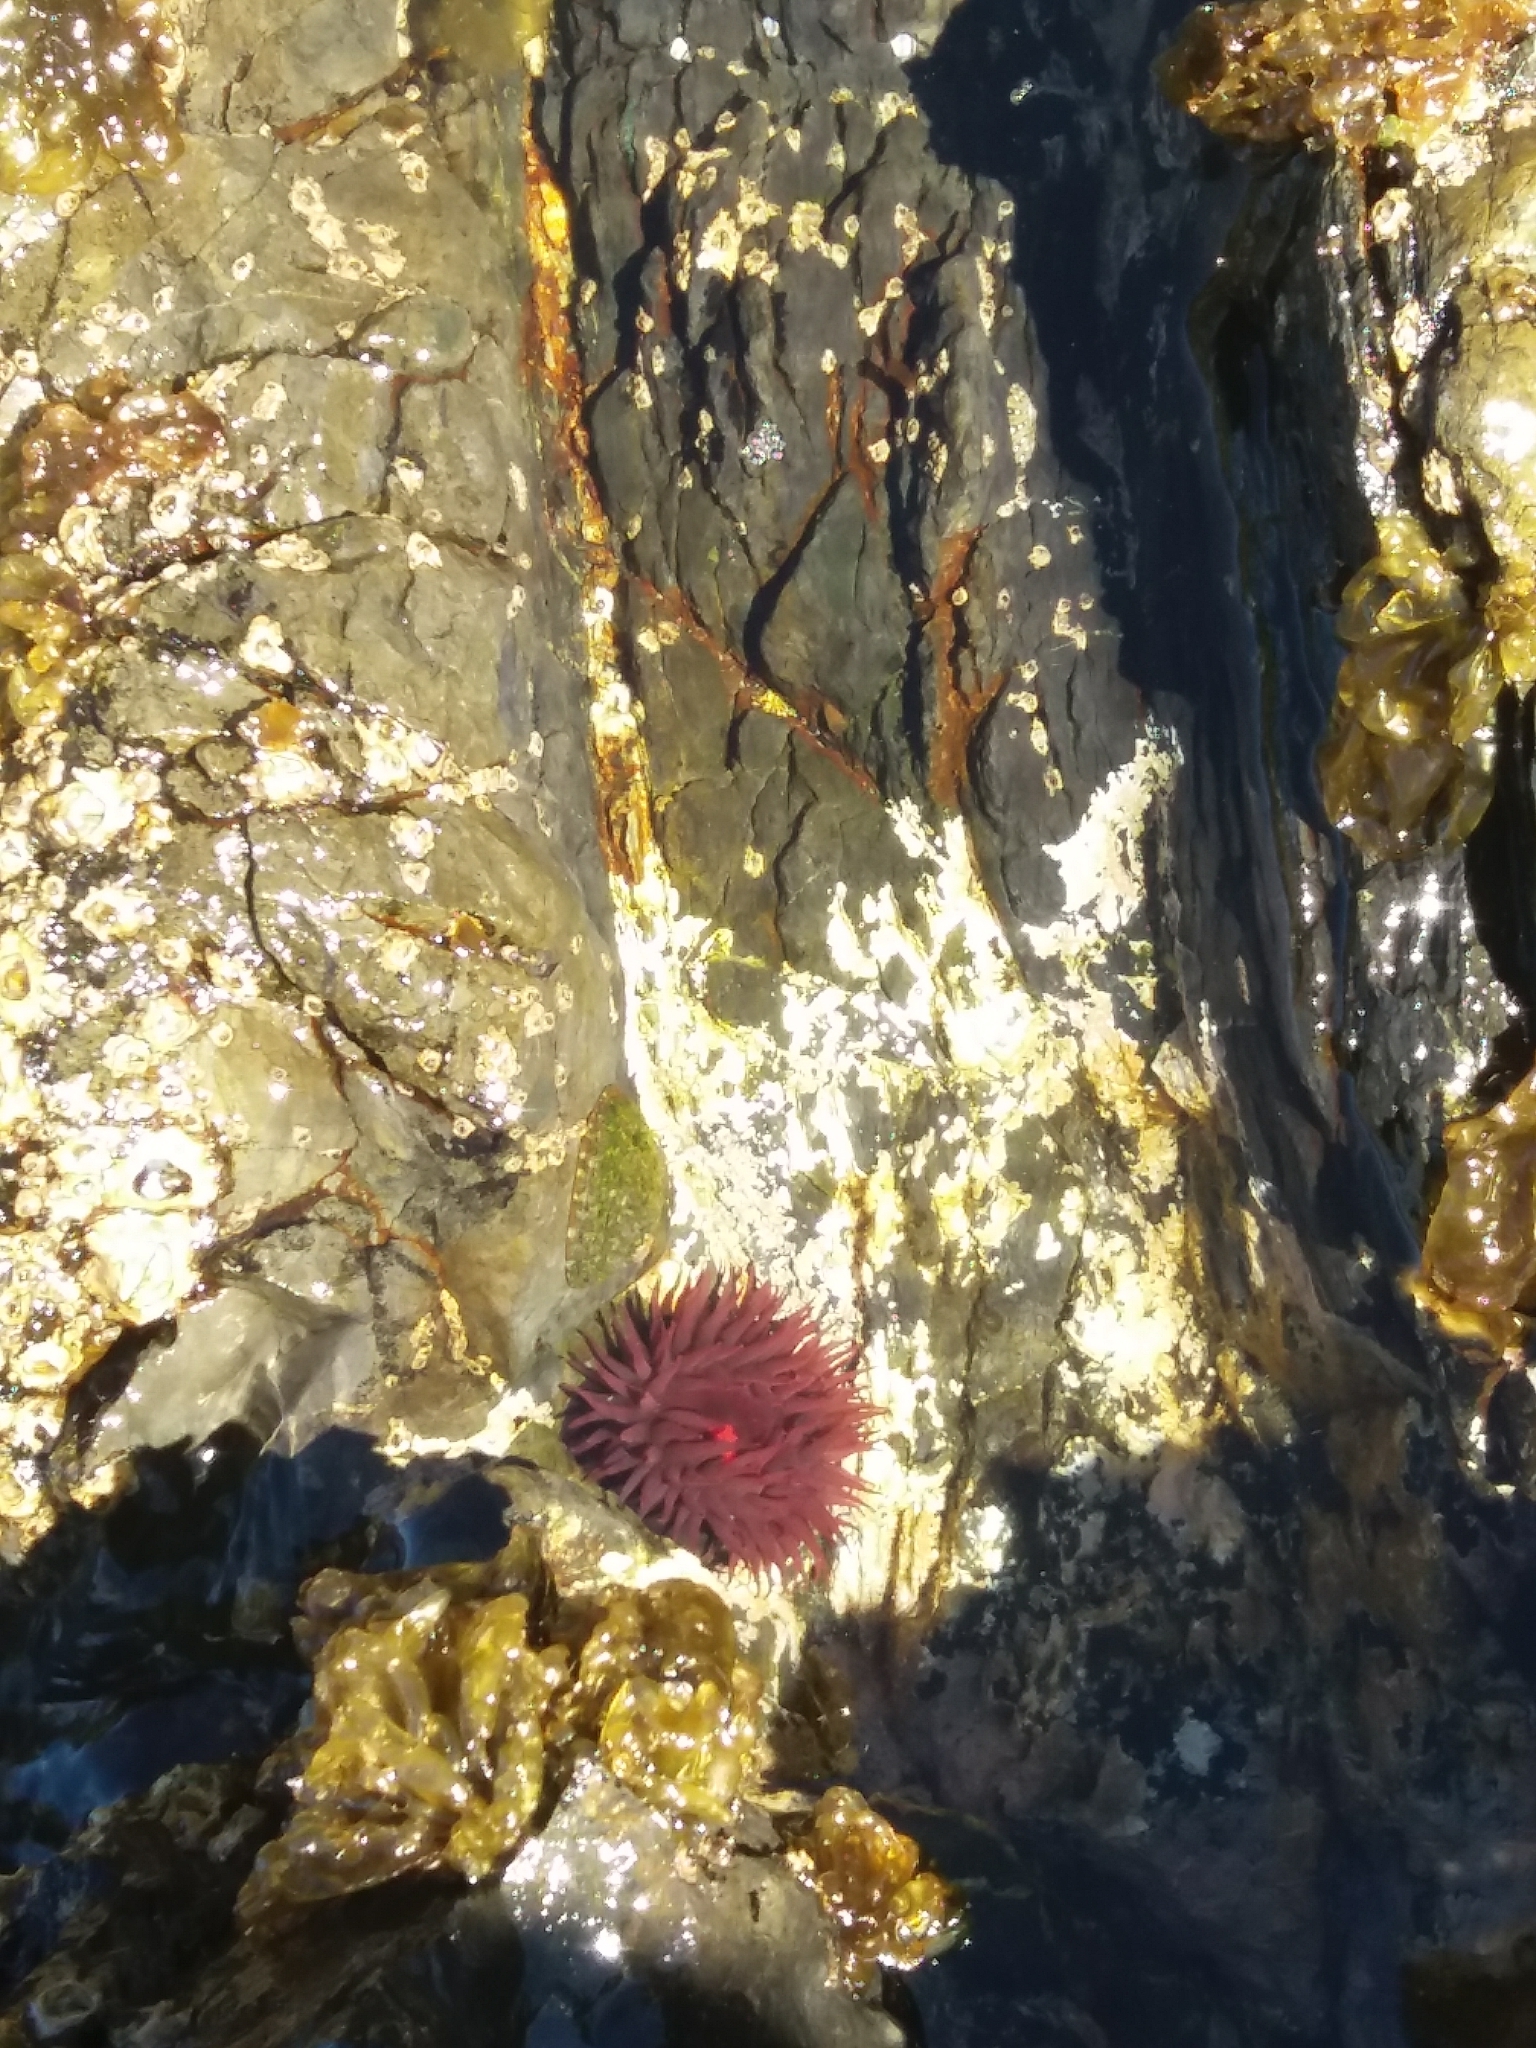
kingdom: Animalia
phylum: Cnidaria
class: Anthozoa
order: Actiniaria
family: Actiniidae
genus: Actinia
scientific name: Actinia tenebrosa
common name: Waratah anemone
